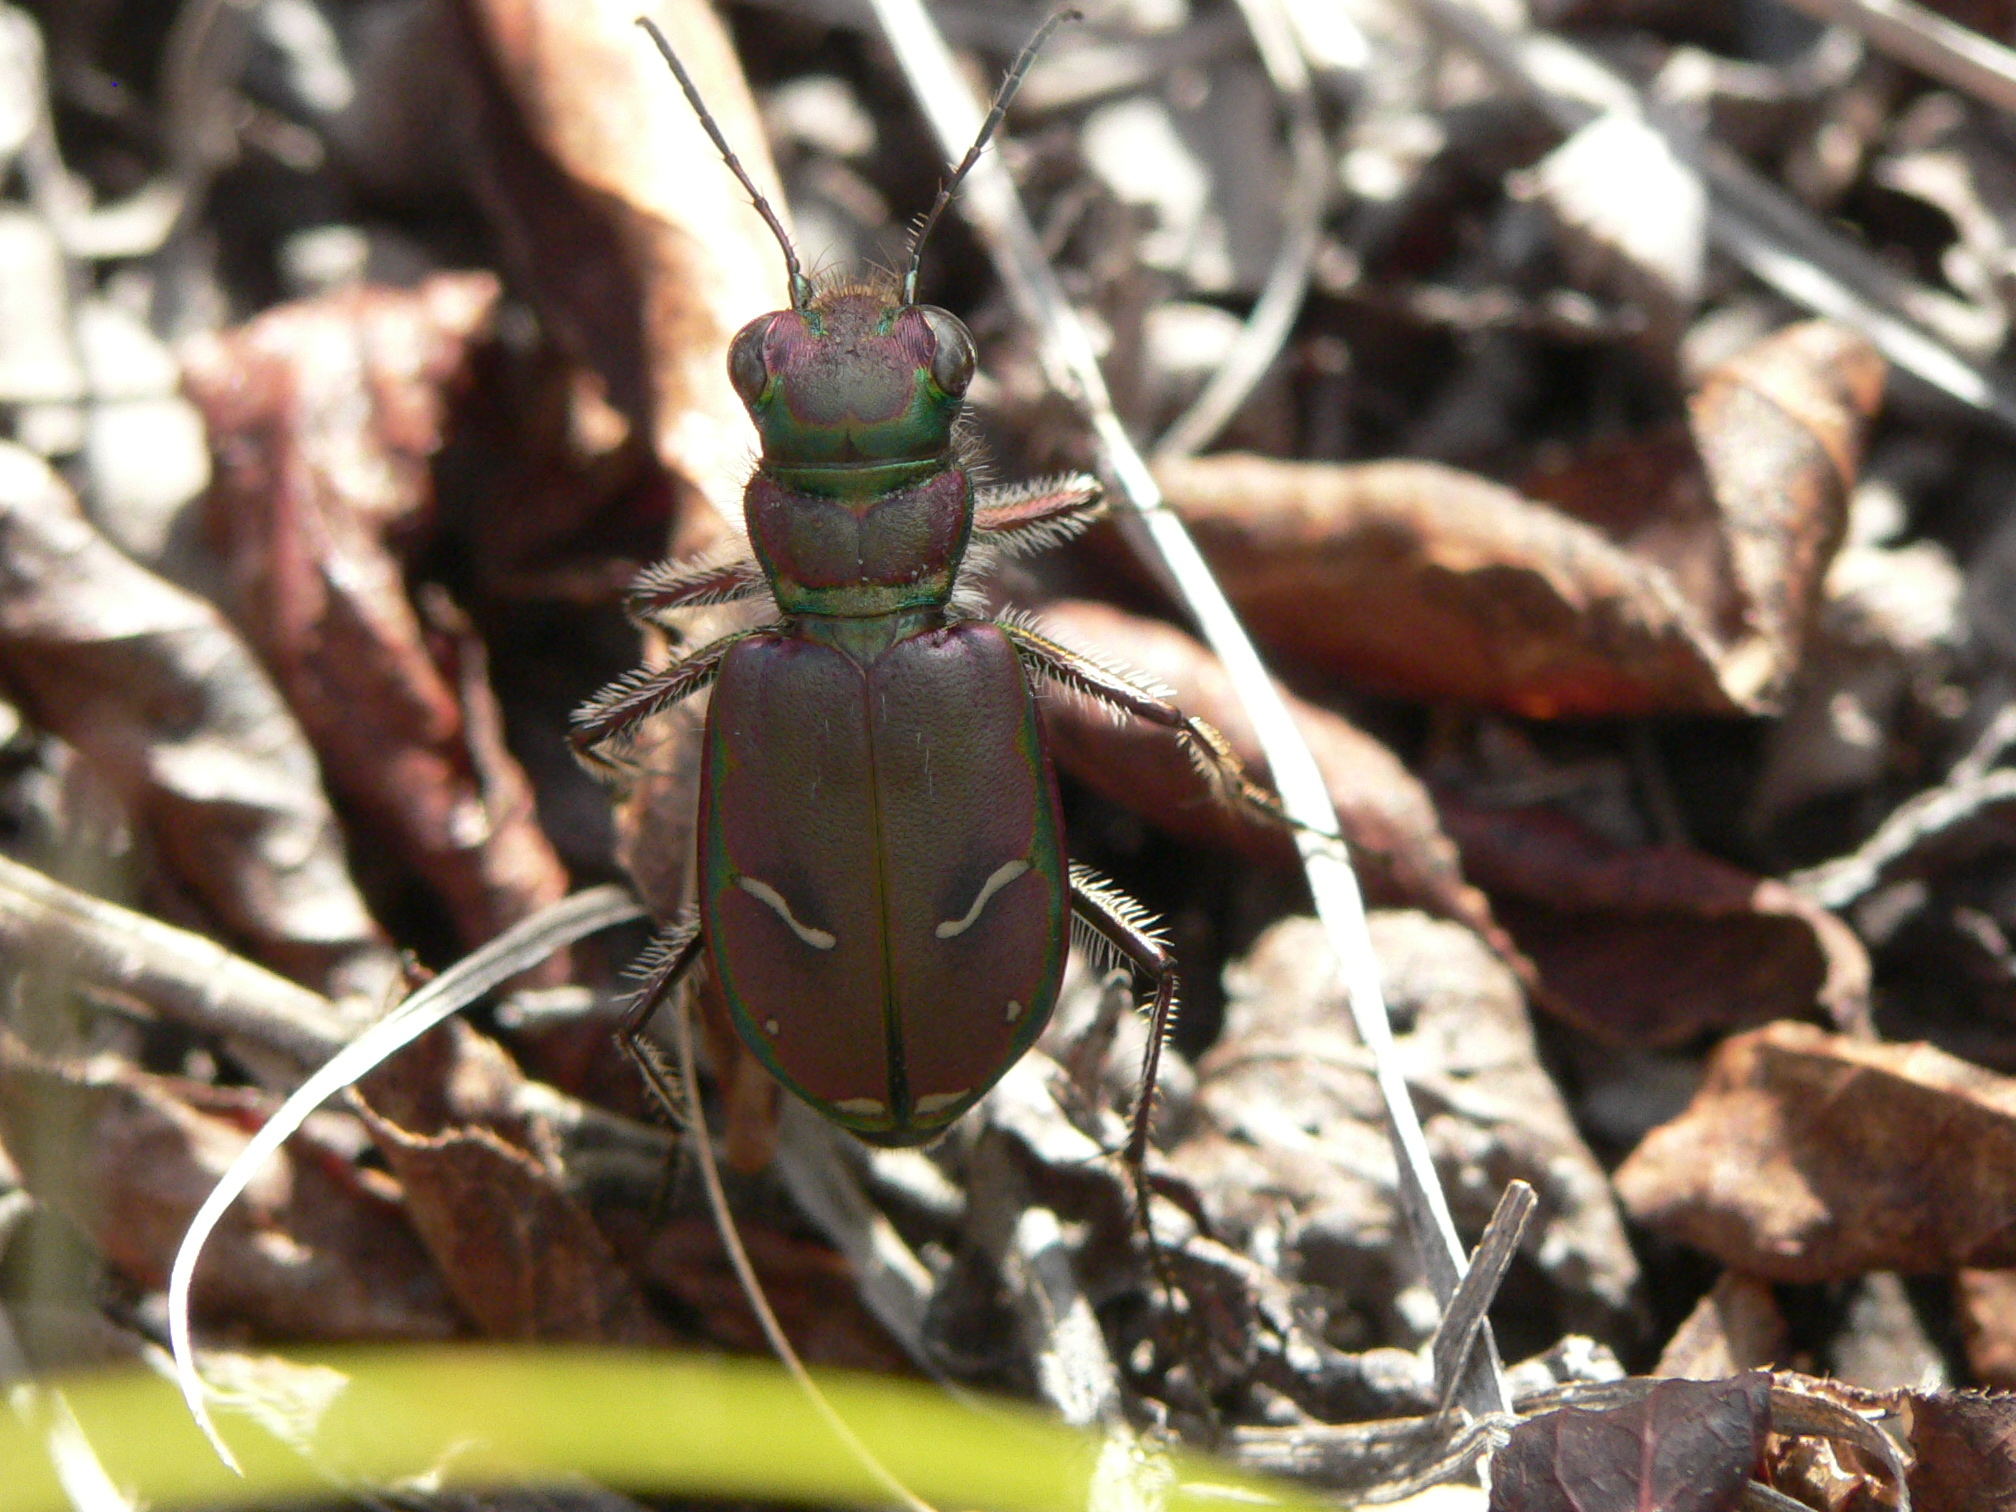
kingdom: Animalia
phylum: Arthropoda
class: Insecta
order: Coleoptera
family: Carabidae
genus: Cicindela
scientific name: Cicindela purpurea
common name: Cow path tiger beetle
